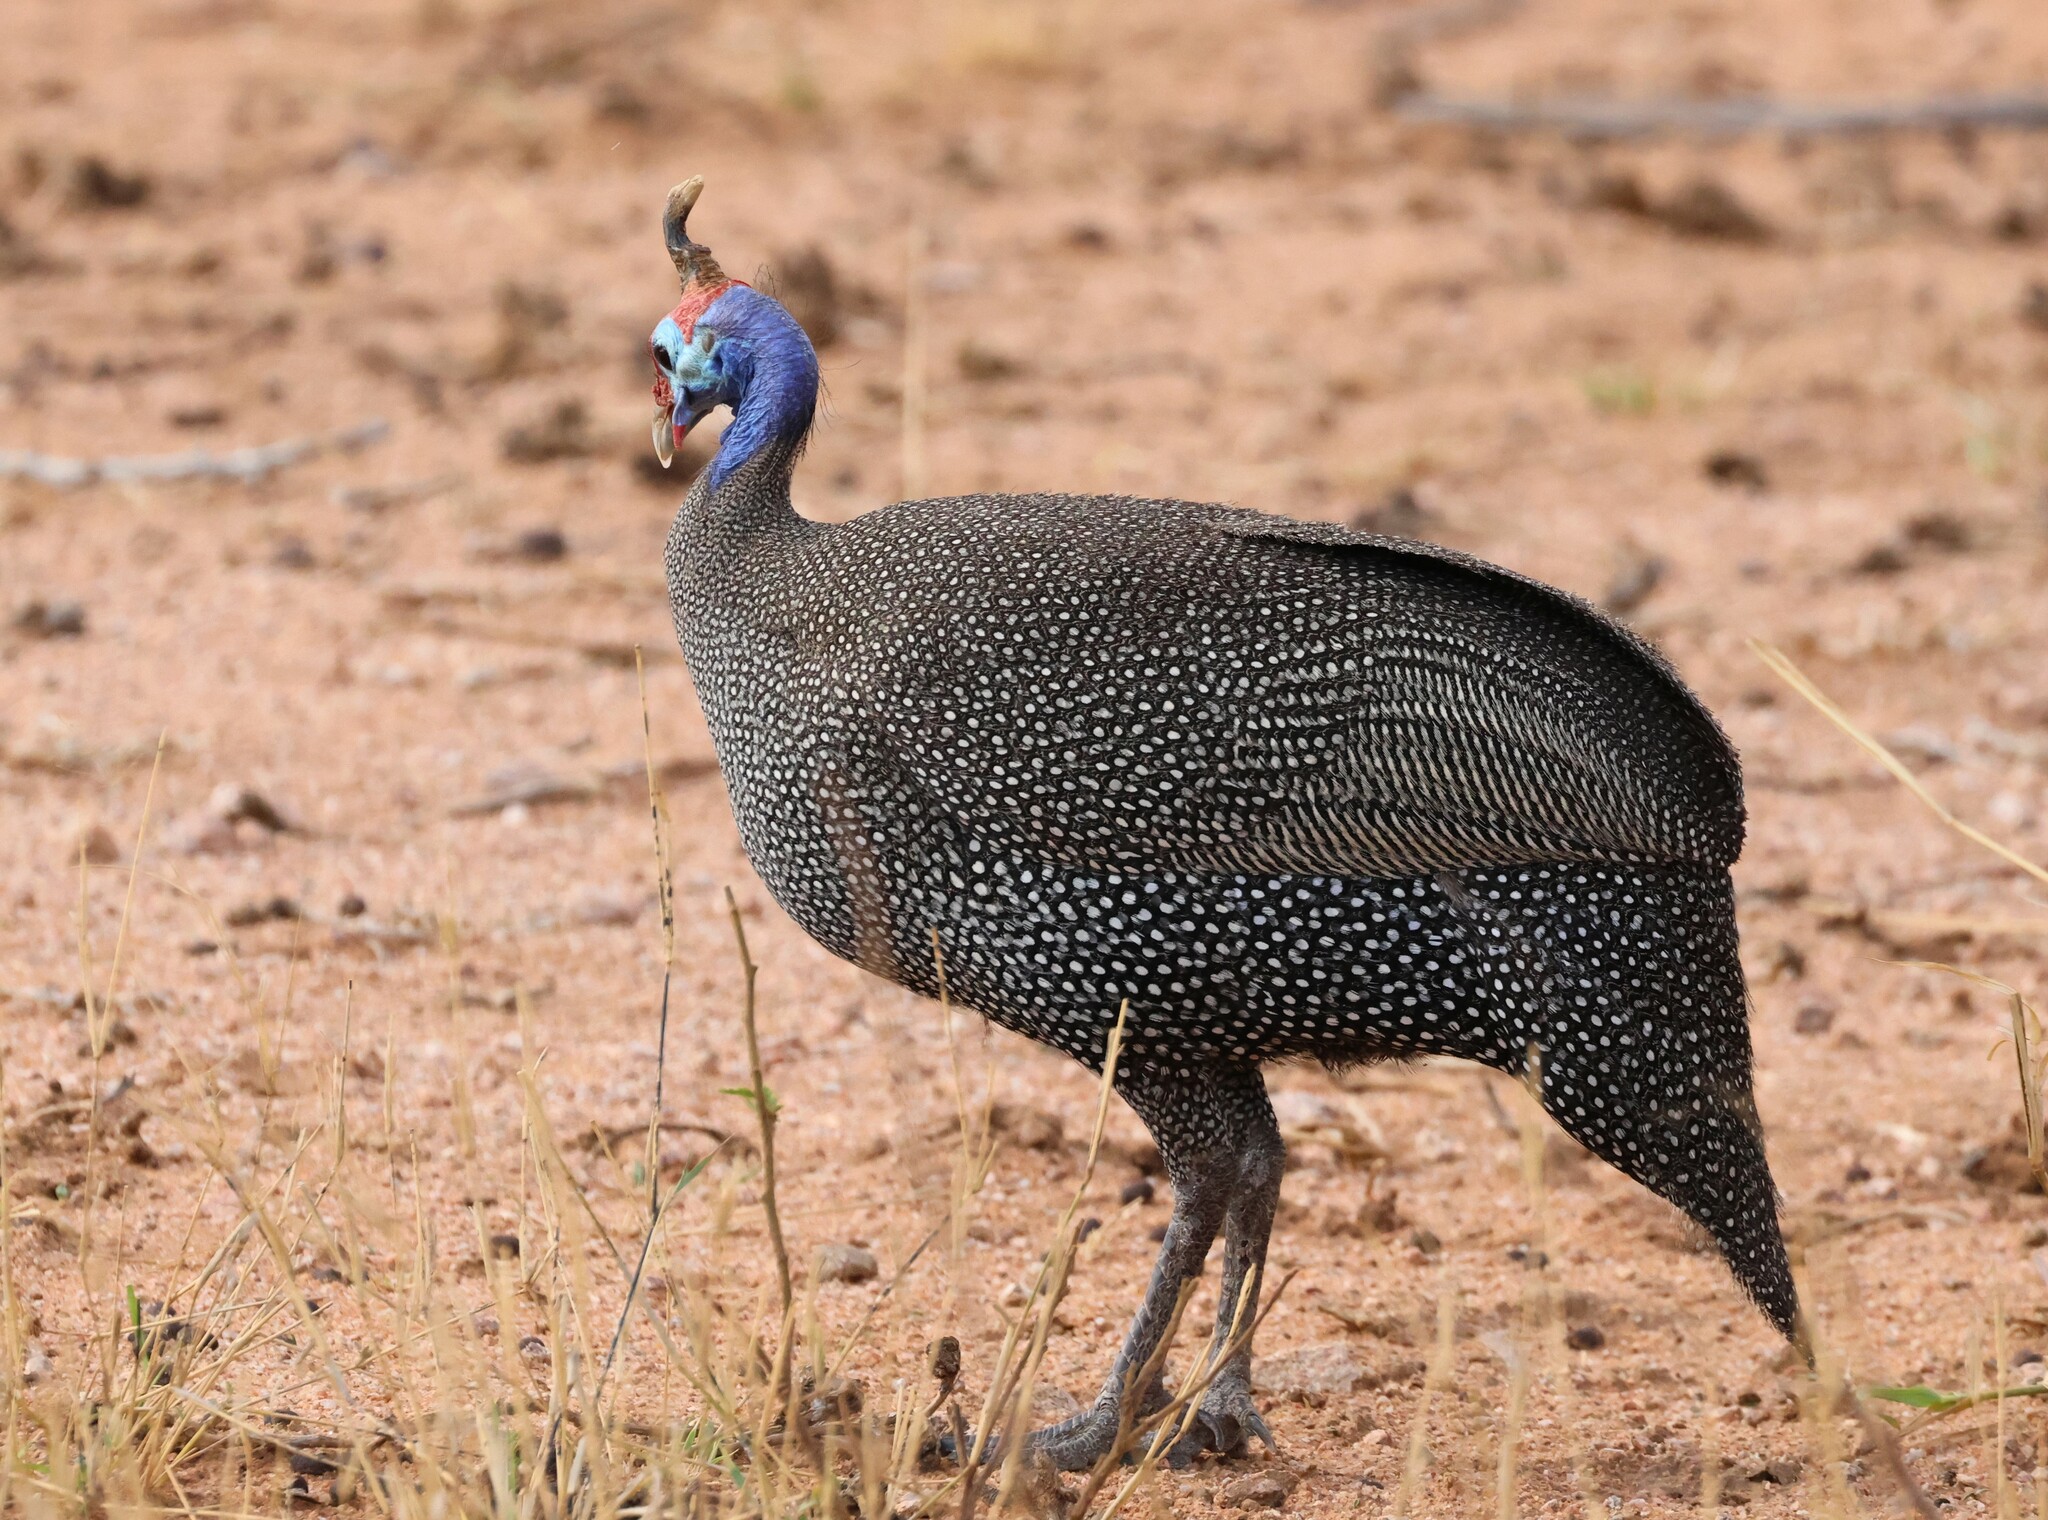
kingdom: Animalia
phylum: Chordata
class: Aves
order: Galliformes
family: Numididae
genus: Numida
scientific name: Numida meleagris
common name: Helmeted guineafowl
